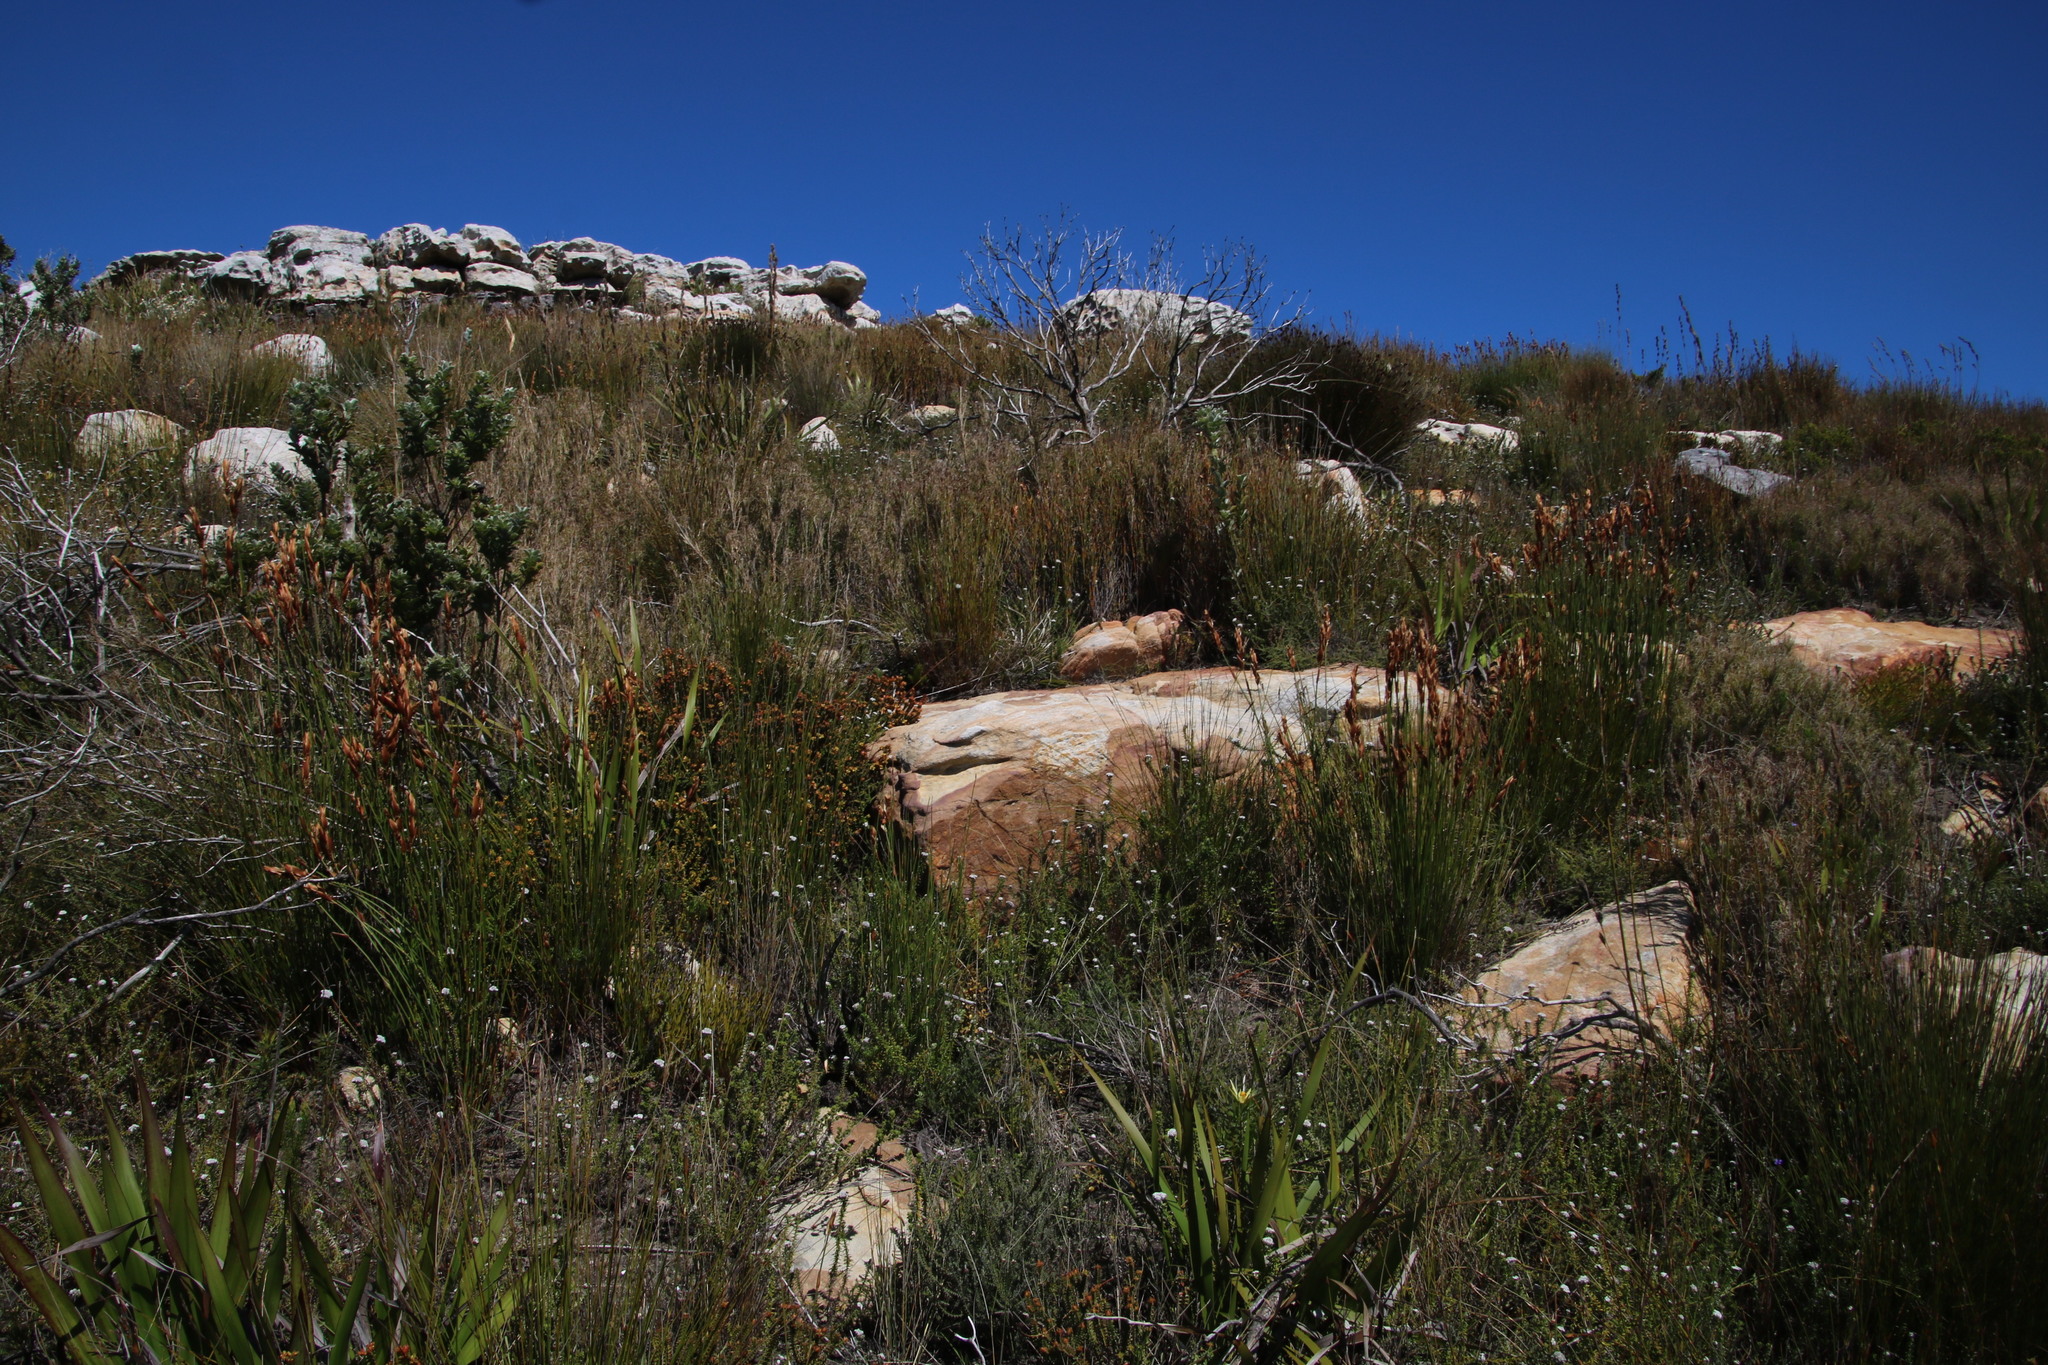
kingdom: Plantae
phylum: Tracheophyta
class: Liliopsida
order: Poales
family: Restionaceae
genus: Elegia
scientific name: Elegia racemosa
